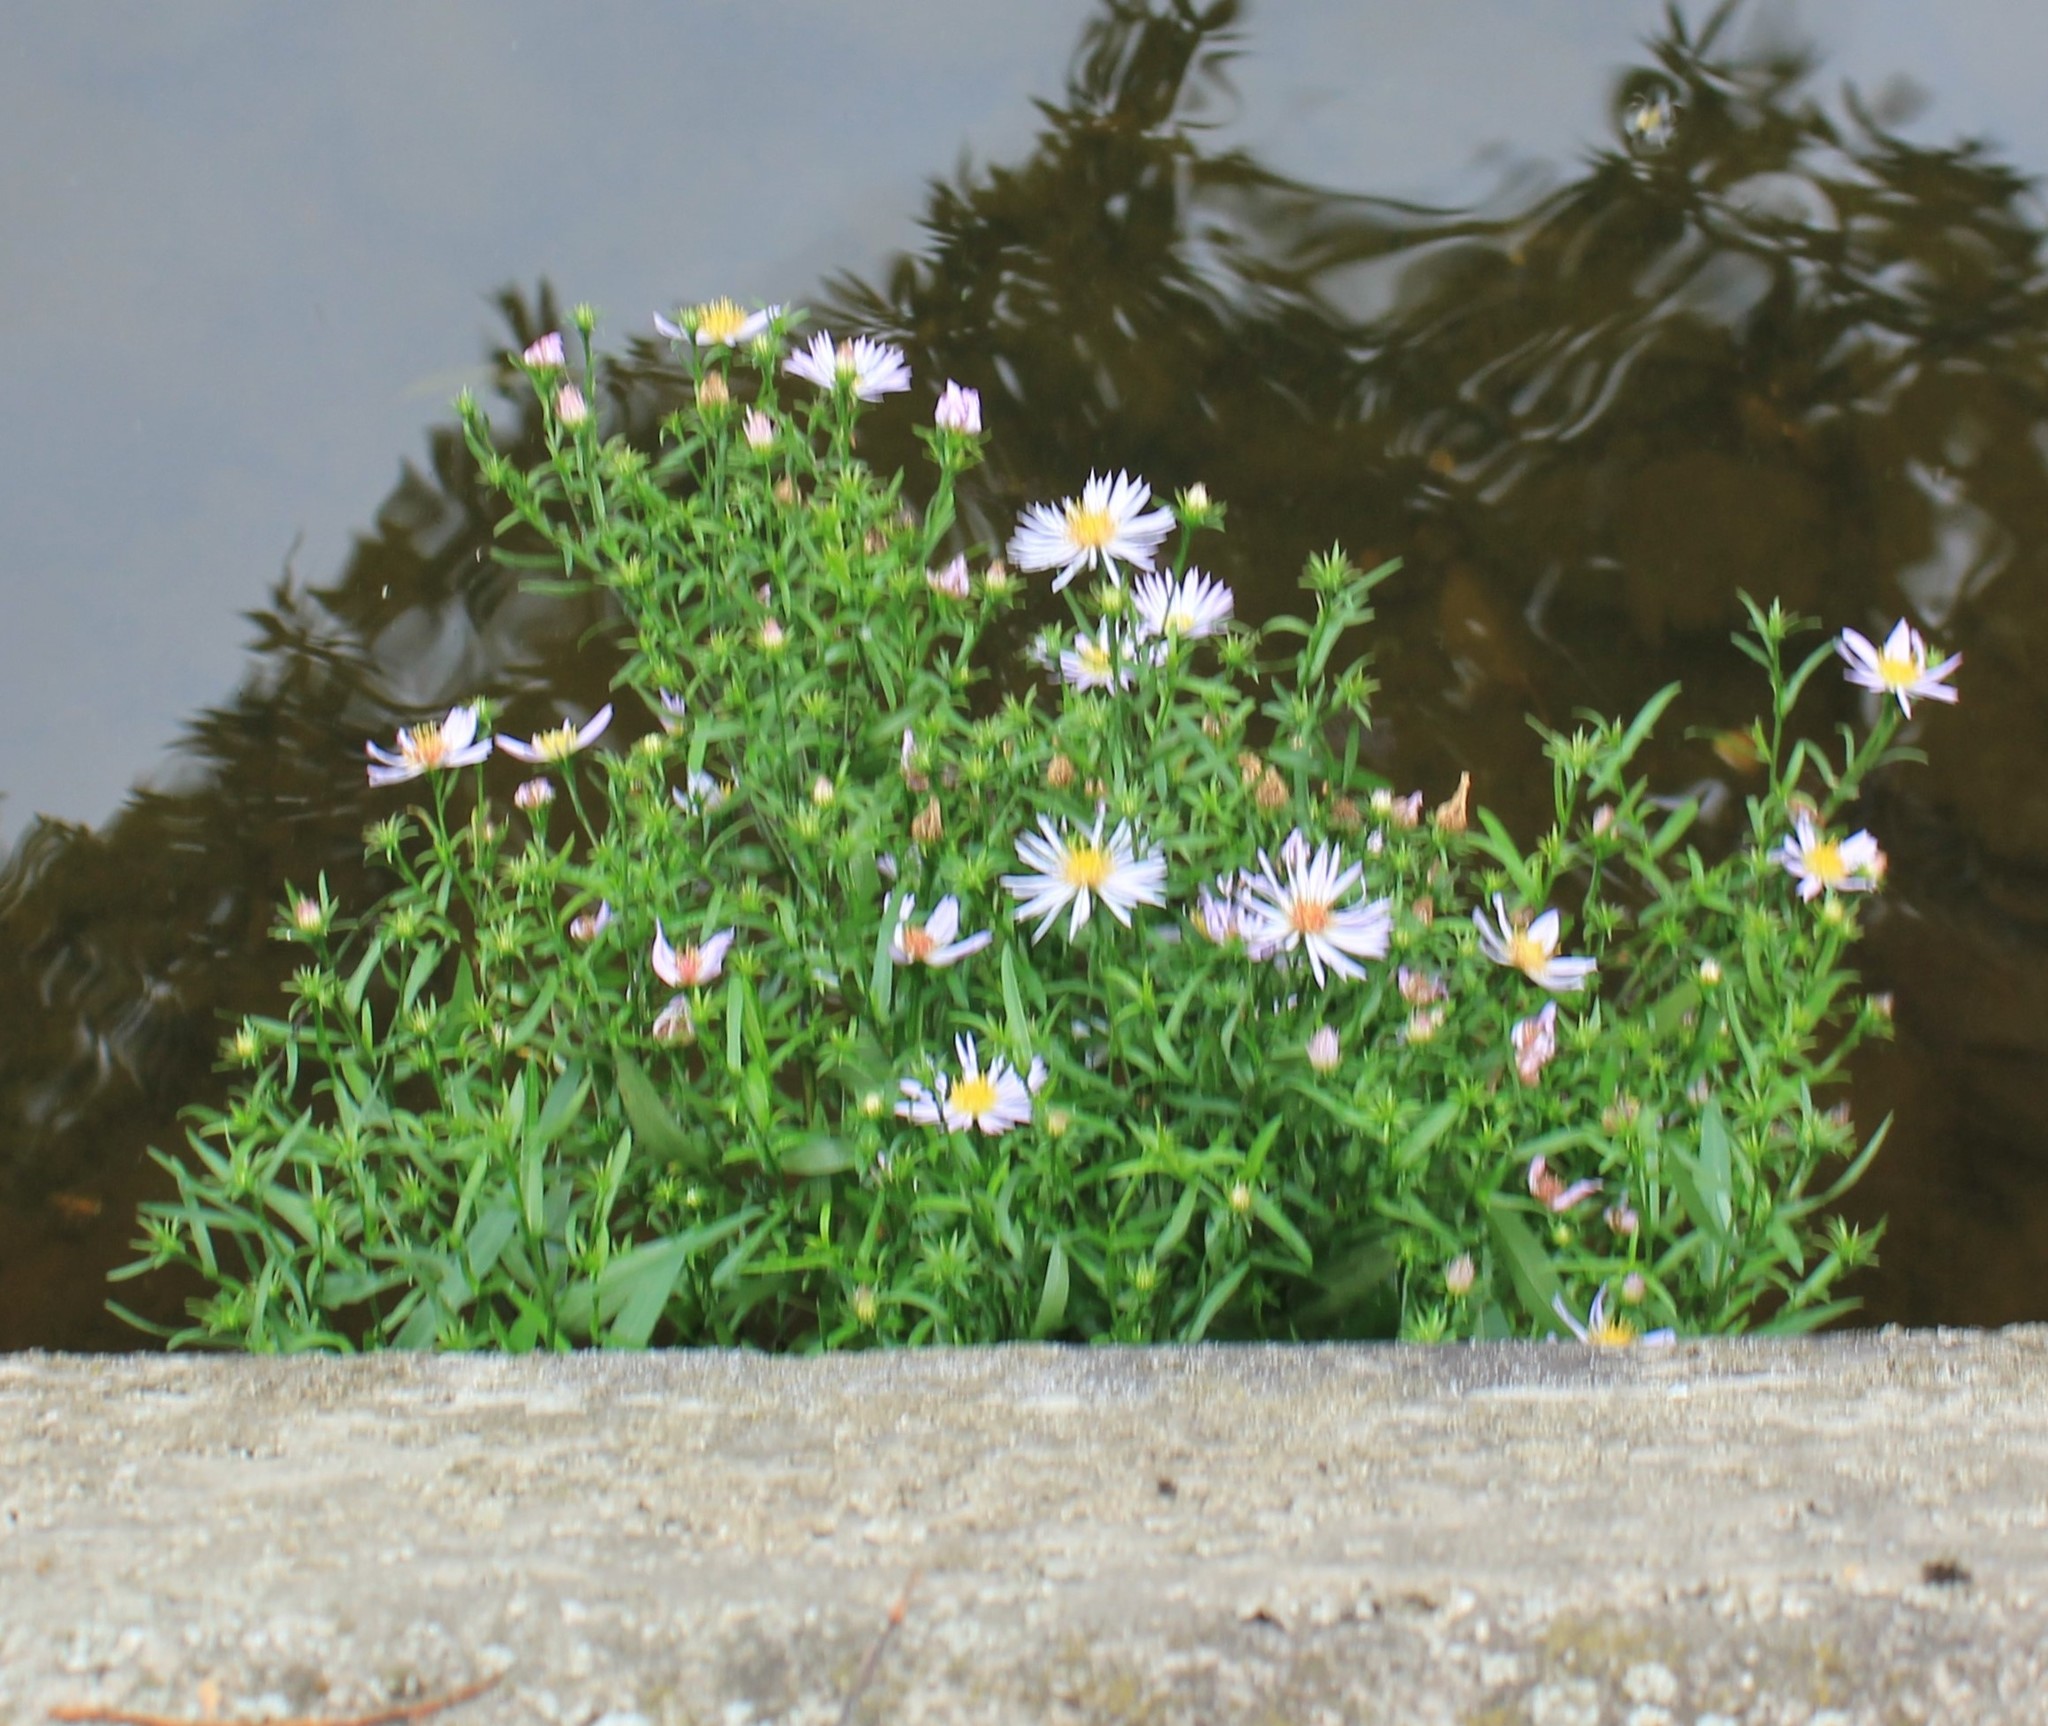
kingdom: Plantae
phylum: Tracheophyta
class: Magnoliopsida
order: Asterales
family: Asteraceae
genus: Symphyotrichum
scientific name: Symphyotrichum
